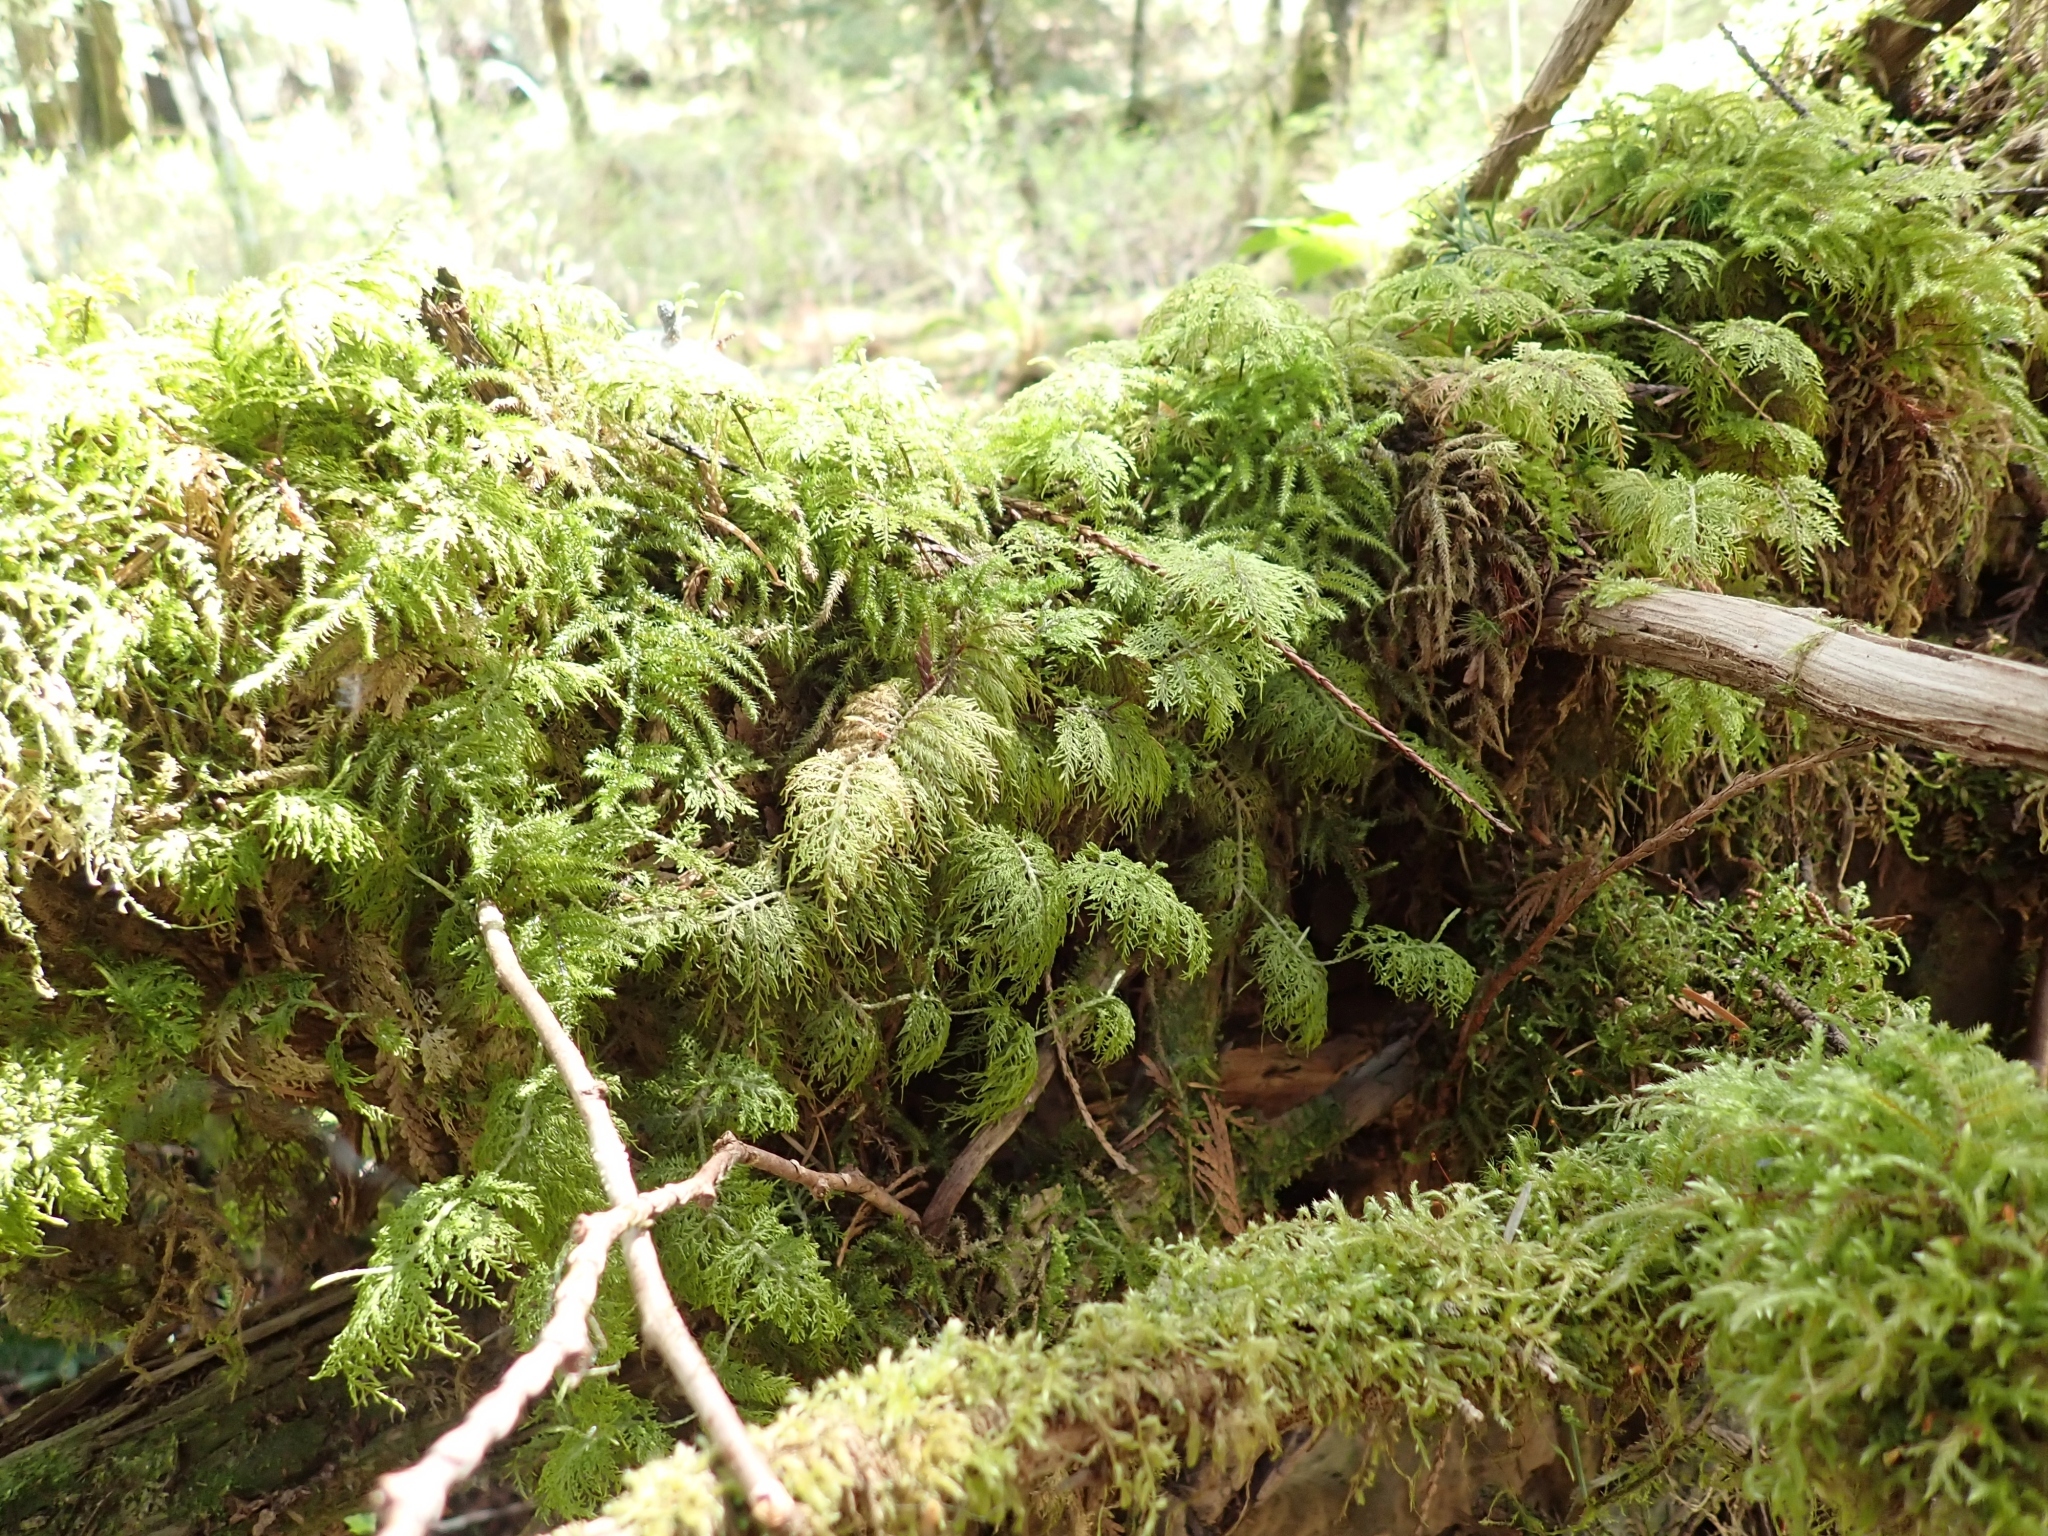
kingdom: Plantae
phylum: Bryophyta
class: Bryopsida
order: Hypnales
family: Hylocomiaceae
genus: Hylocomium
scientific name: Hylocomium splendens
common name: Stairstep moss
